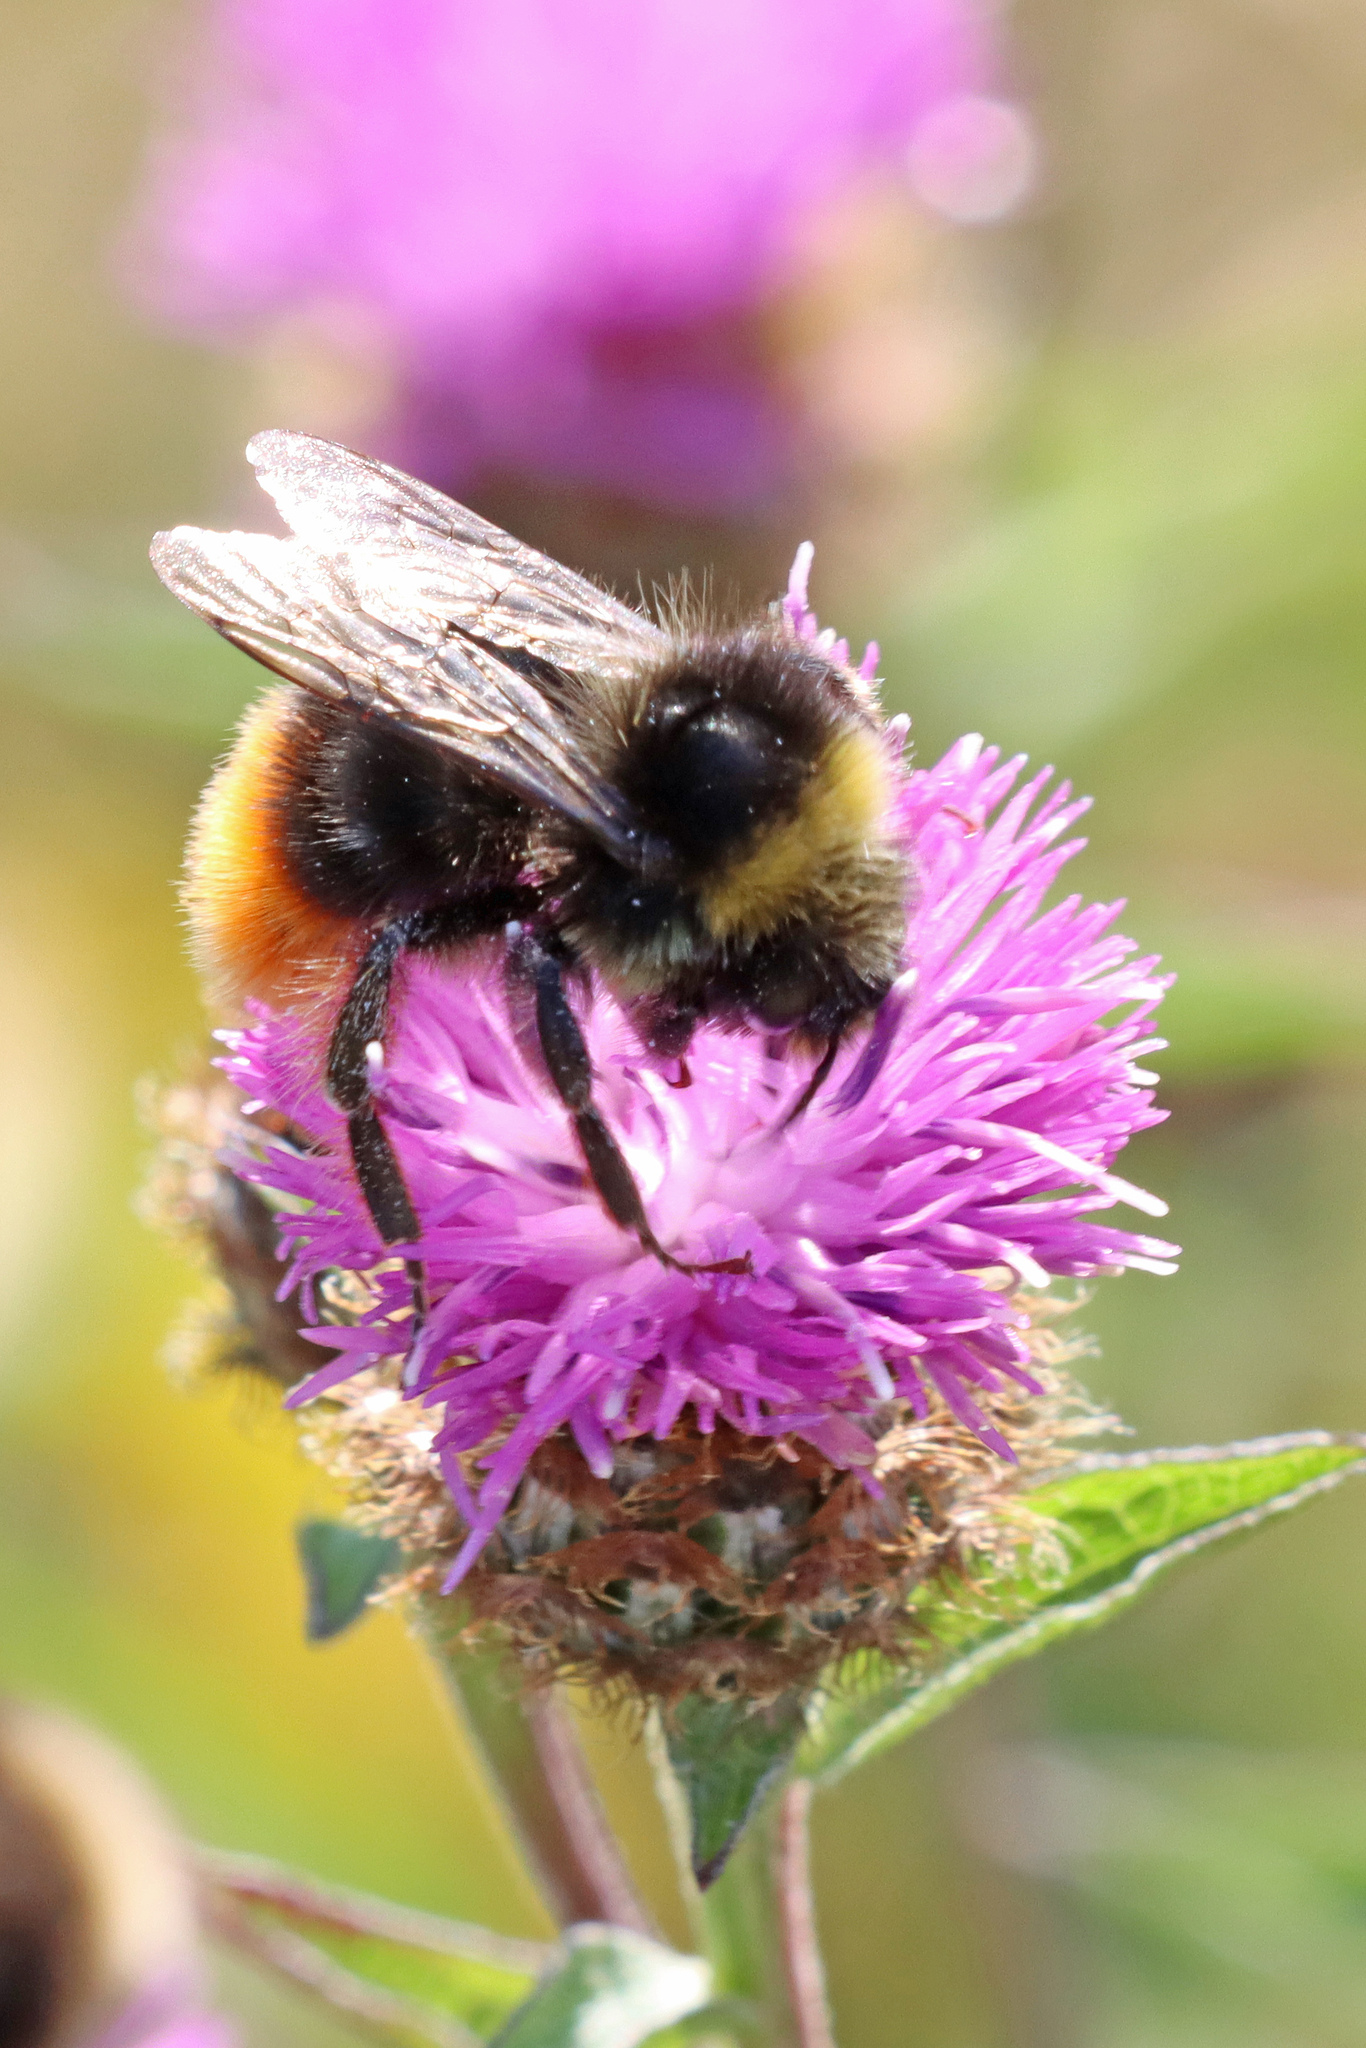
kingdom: Animalia
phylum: Arthropoda
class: Insecta
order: Hymenoptera
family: Apidae
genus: Bombus
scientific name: Bombus lapidarius
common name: Large red-tailed humble-bee
